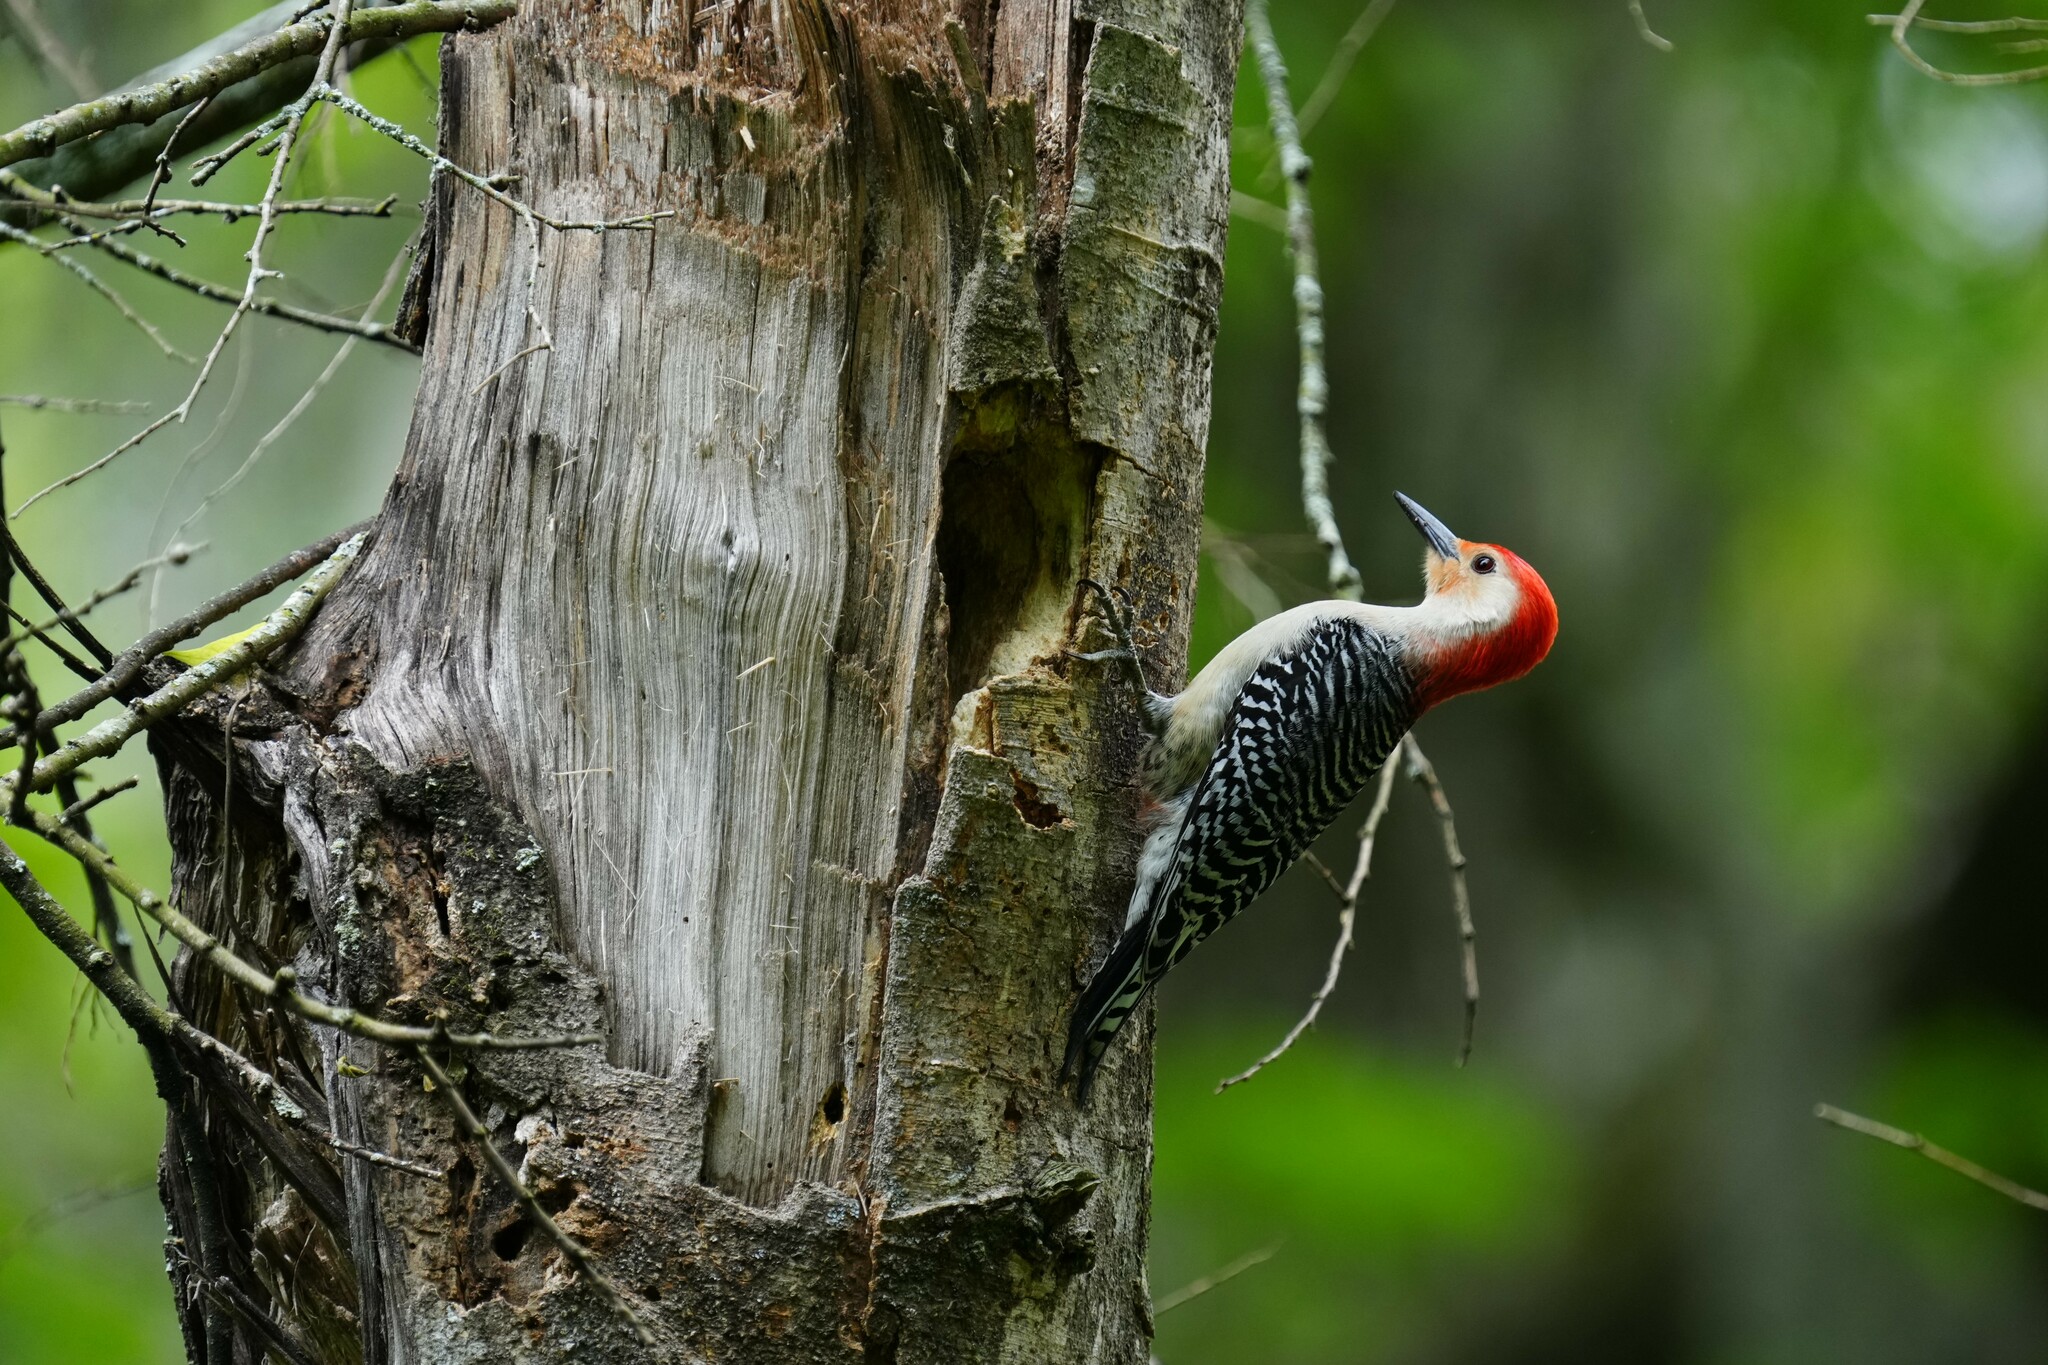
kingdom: Animalia
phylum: Chordata
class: Aves
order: Piciformes
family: Picidae
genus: Melanerpes
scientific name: Melanerpes carolinus
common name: Red-bellied woodpecker
